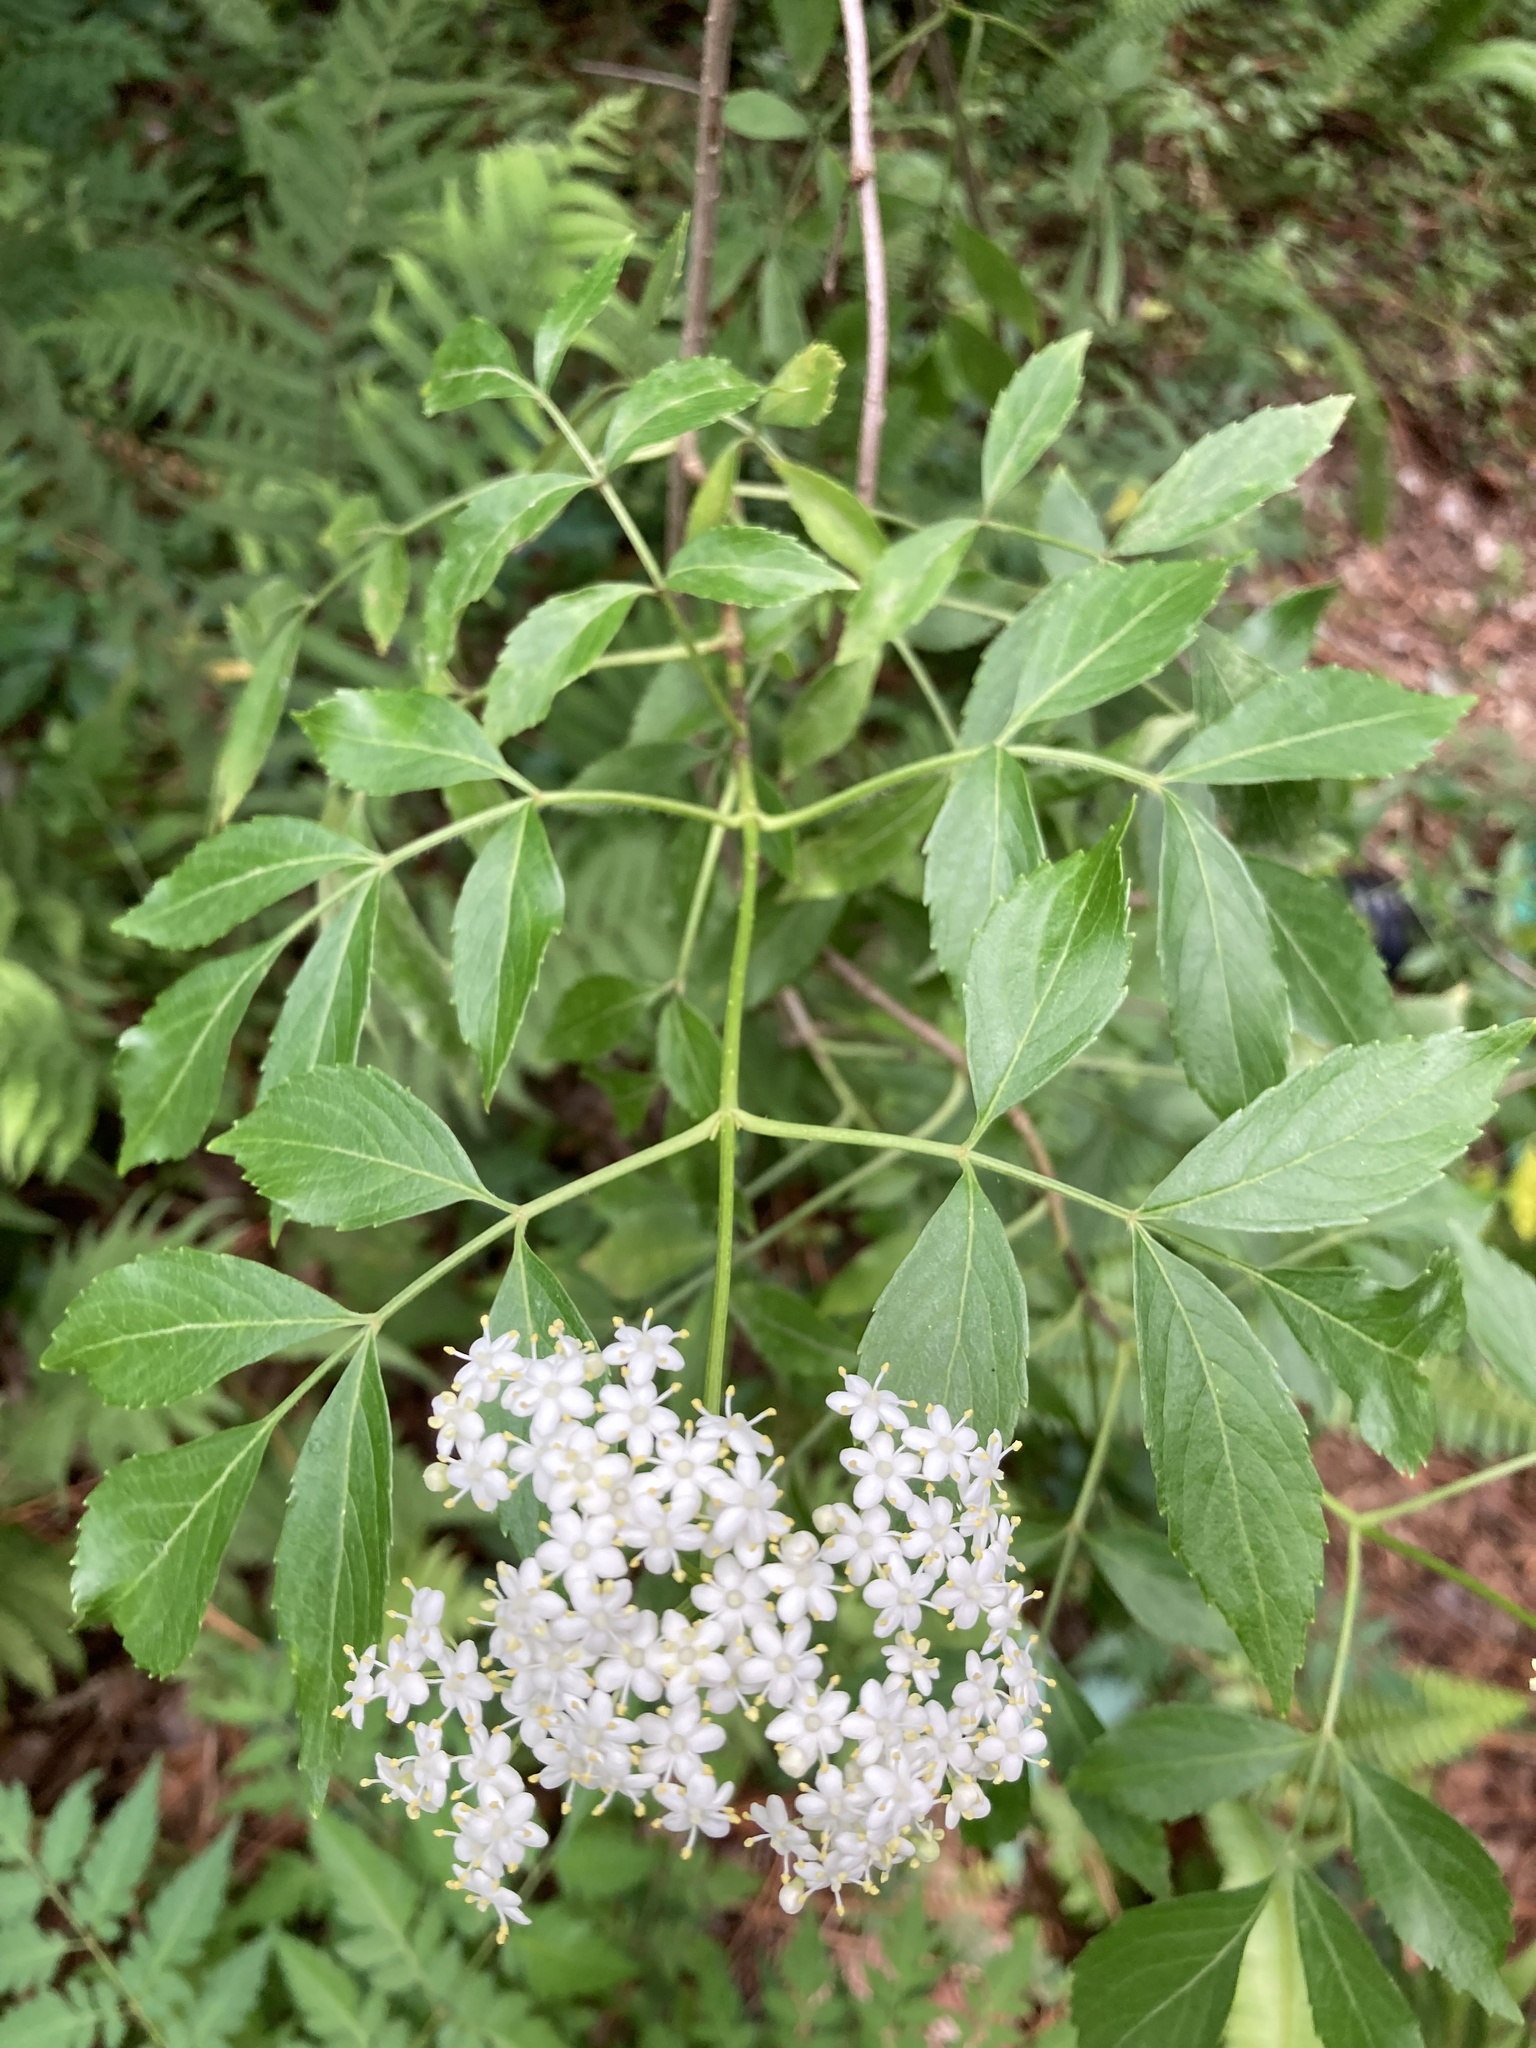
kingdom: Plantae
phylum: Tracheophyta
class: Magnoliopsida
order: Dipsacales
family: Viburnaceae
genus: Sambucus
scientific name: Sambucus canadensis
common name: American elder
